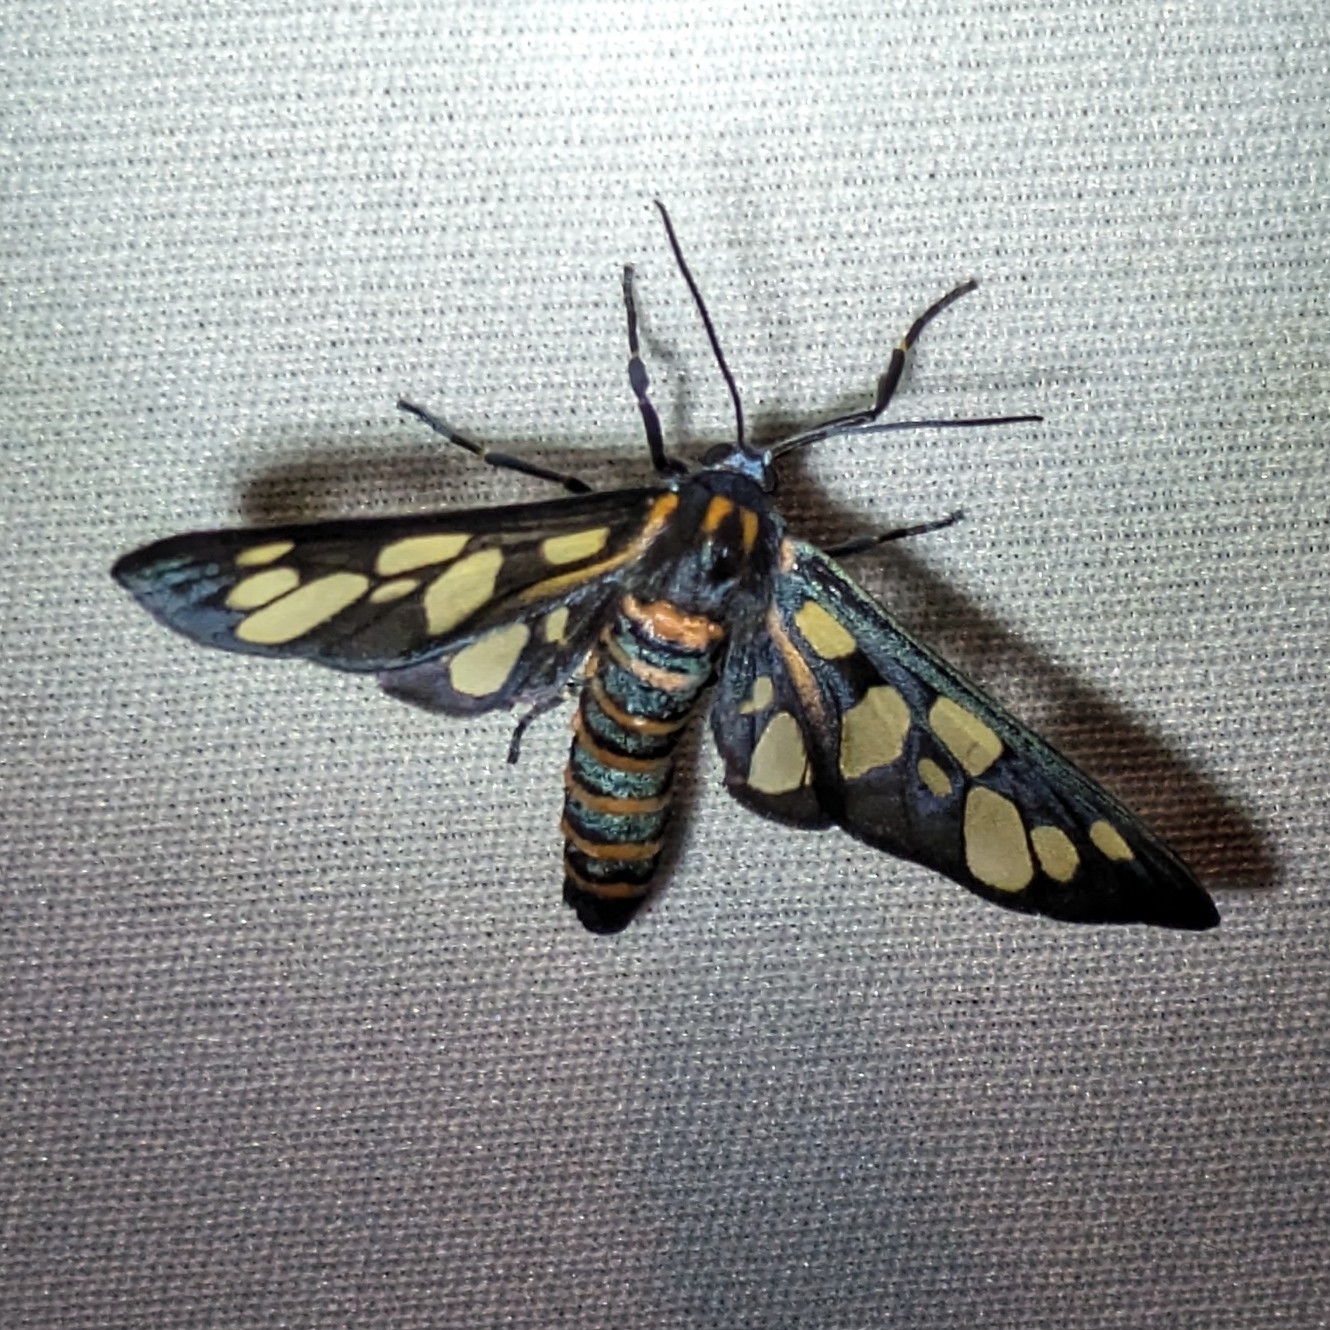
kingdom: Animalia
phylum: Arthropoda
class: Insecta
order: Lepidoptera
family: Erebidae
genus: Amata
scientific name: Amata passalis
